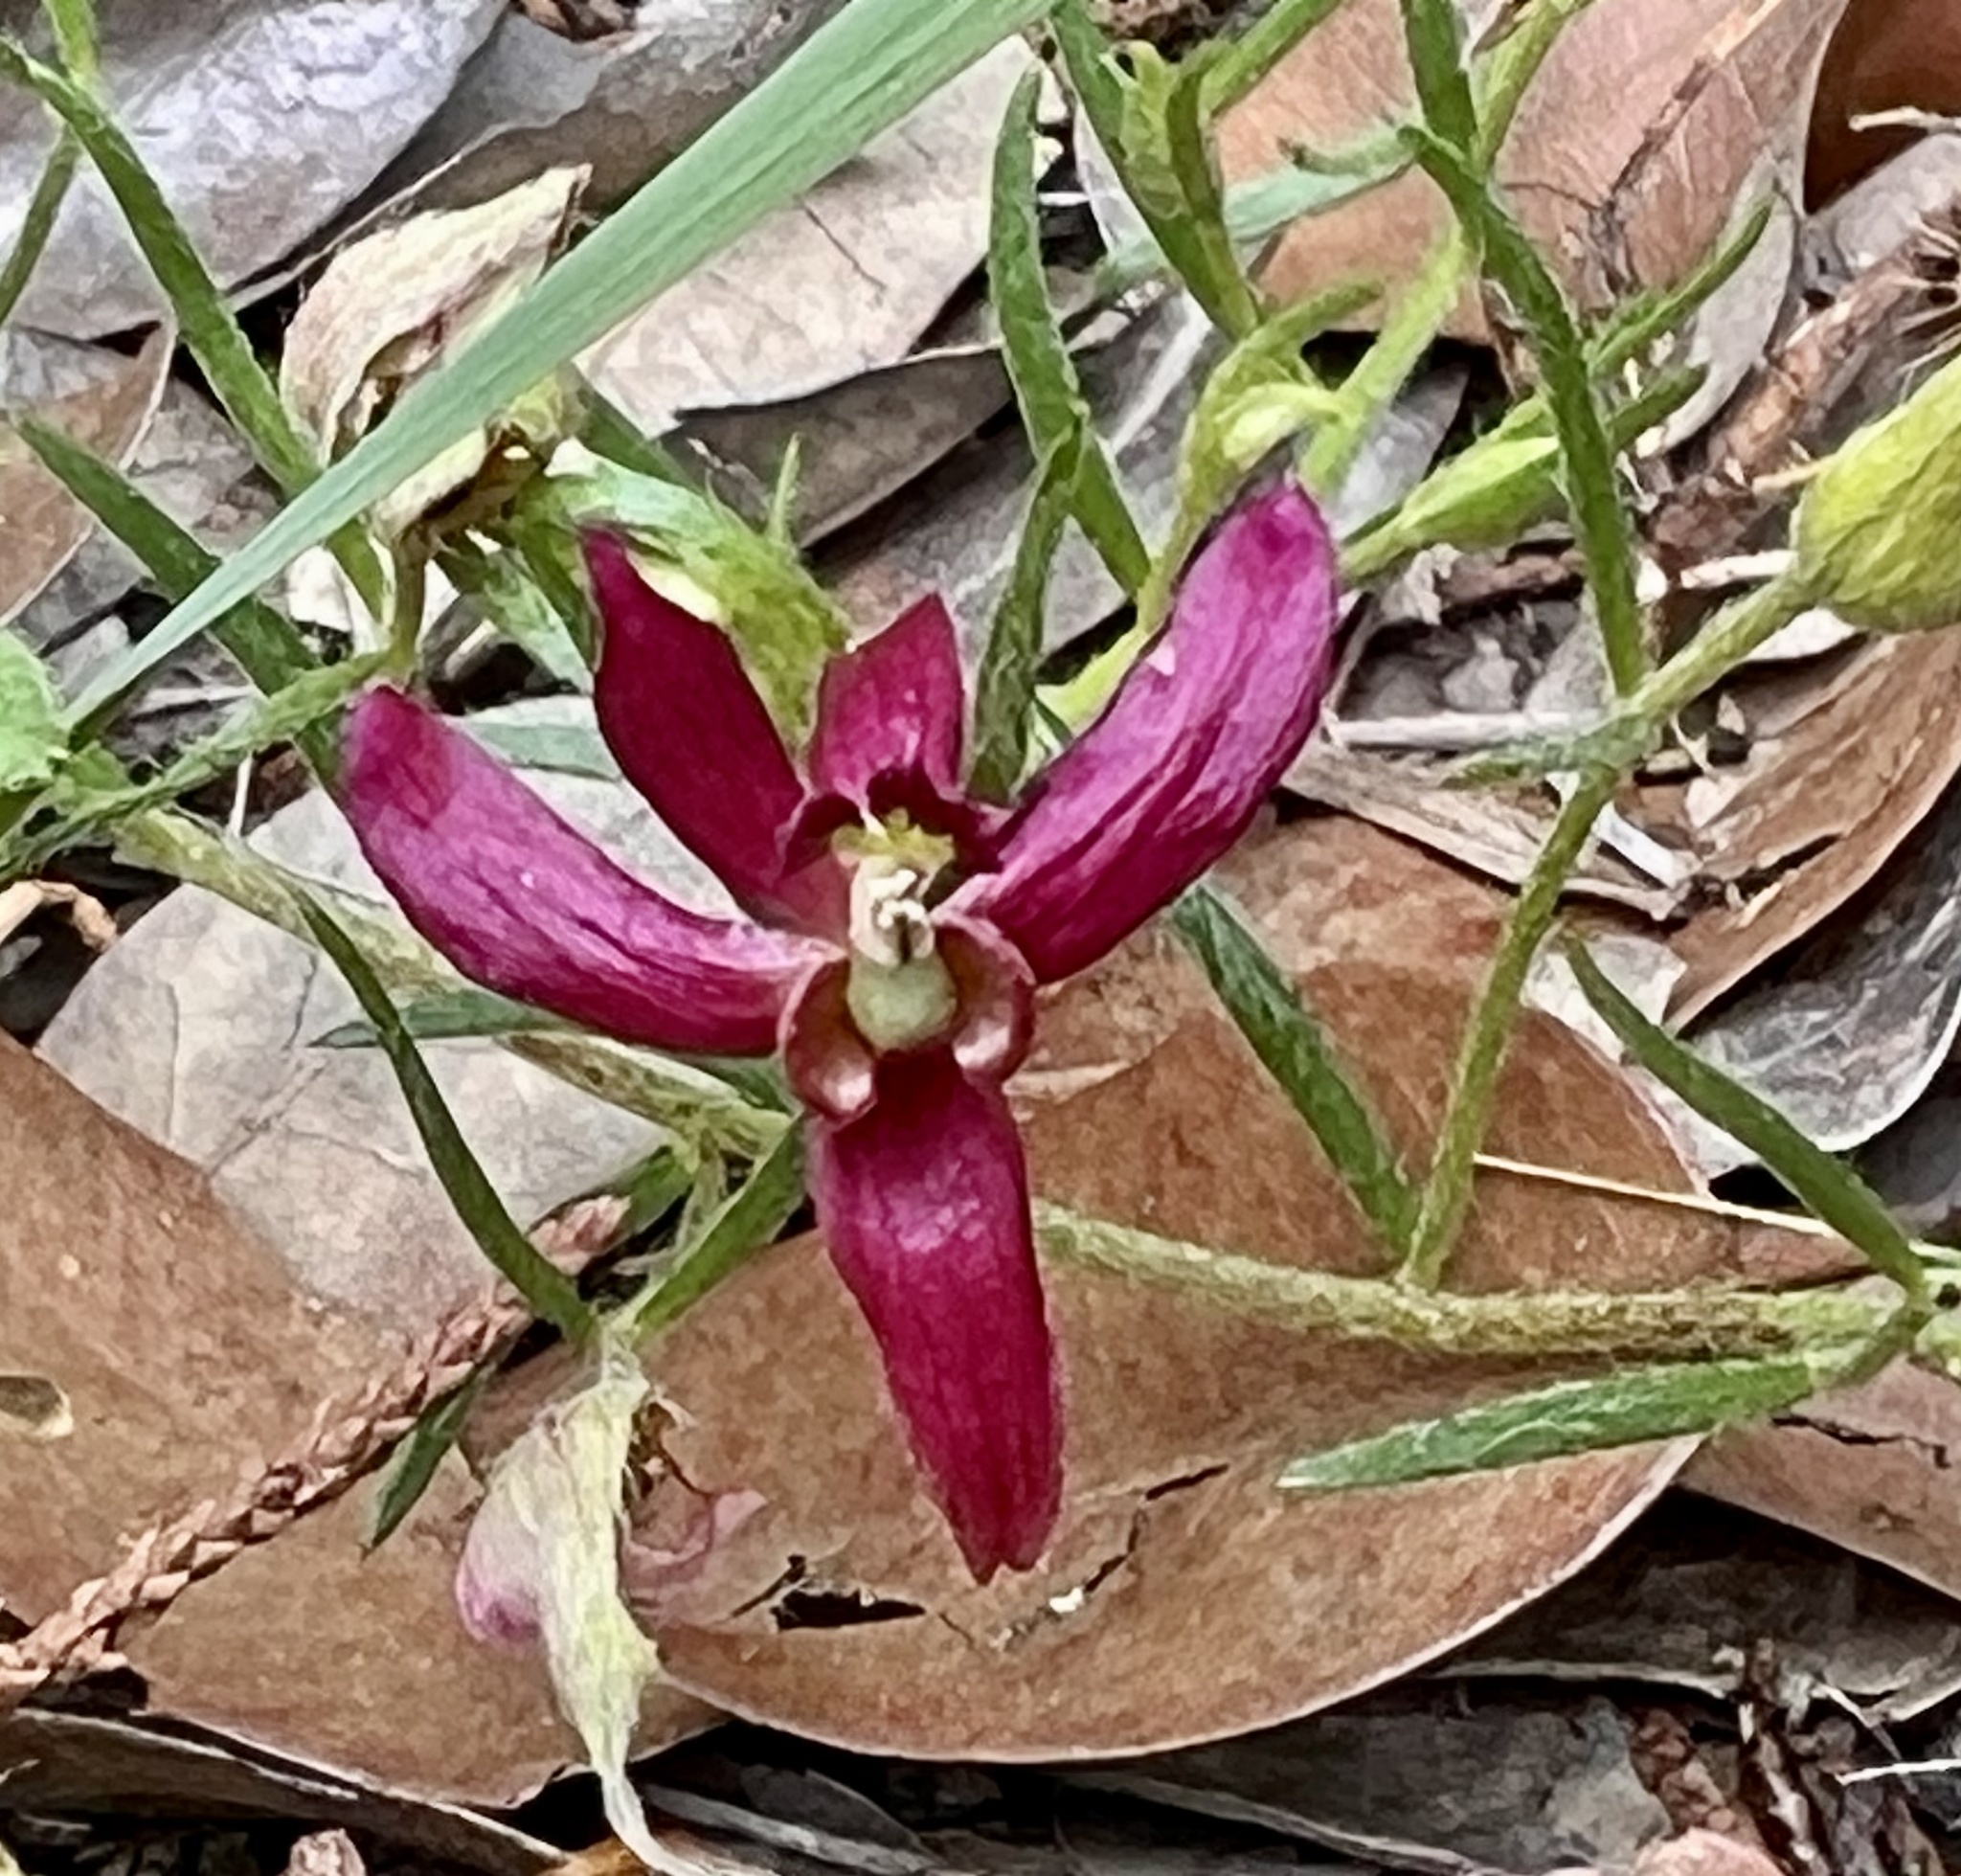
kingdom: Plantae
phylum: Tracheophyta
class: Magnoliopsida
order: Zygophyllales
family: Krameriaceae
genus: Krameria
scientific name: Krameria lanceolata
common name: Ratany
